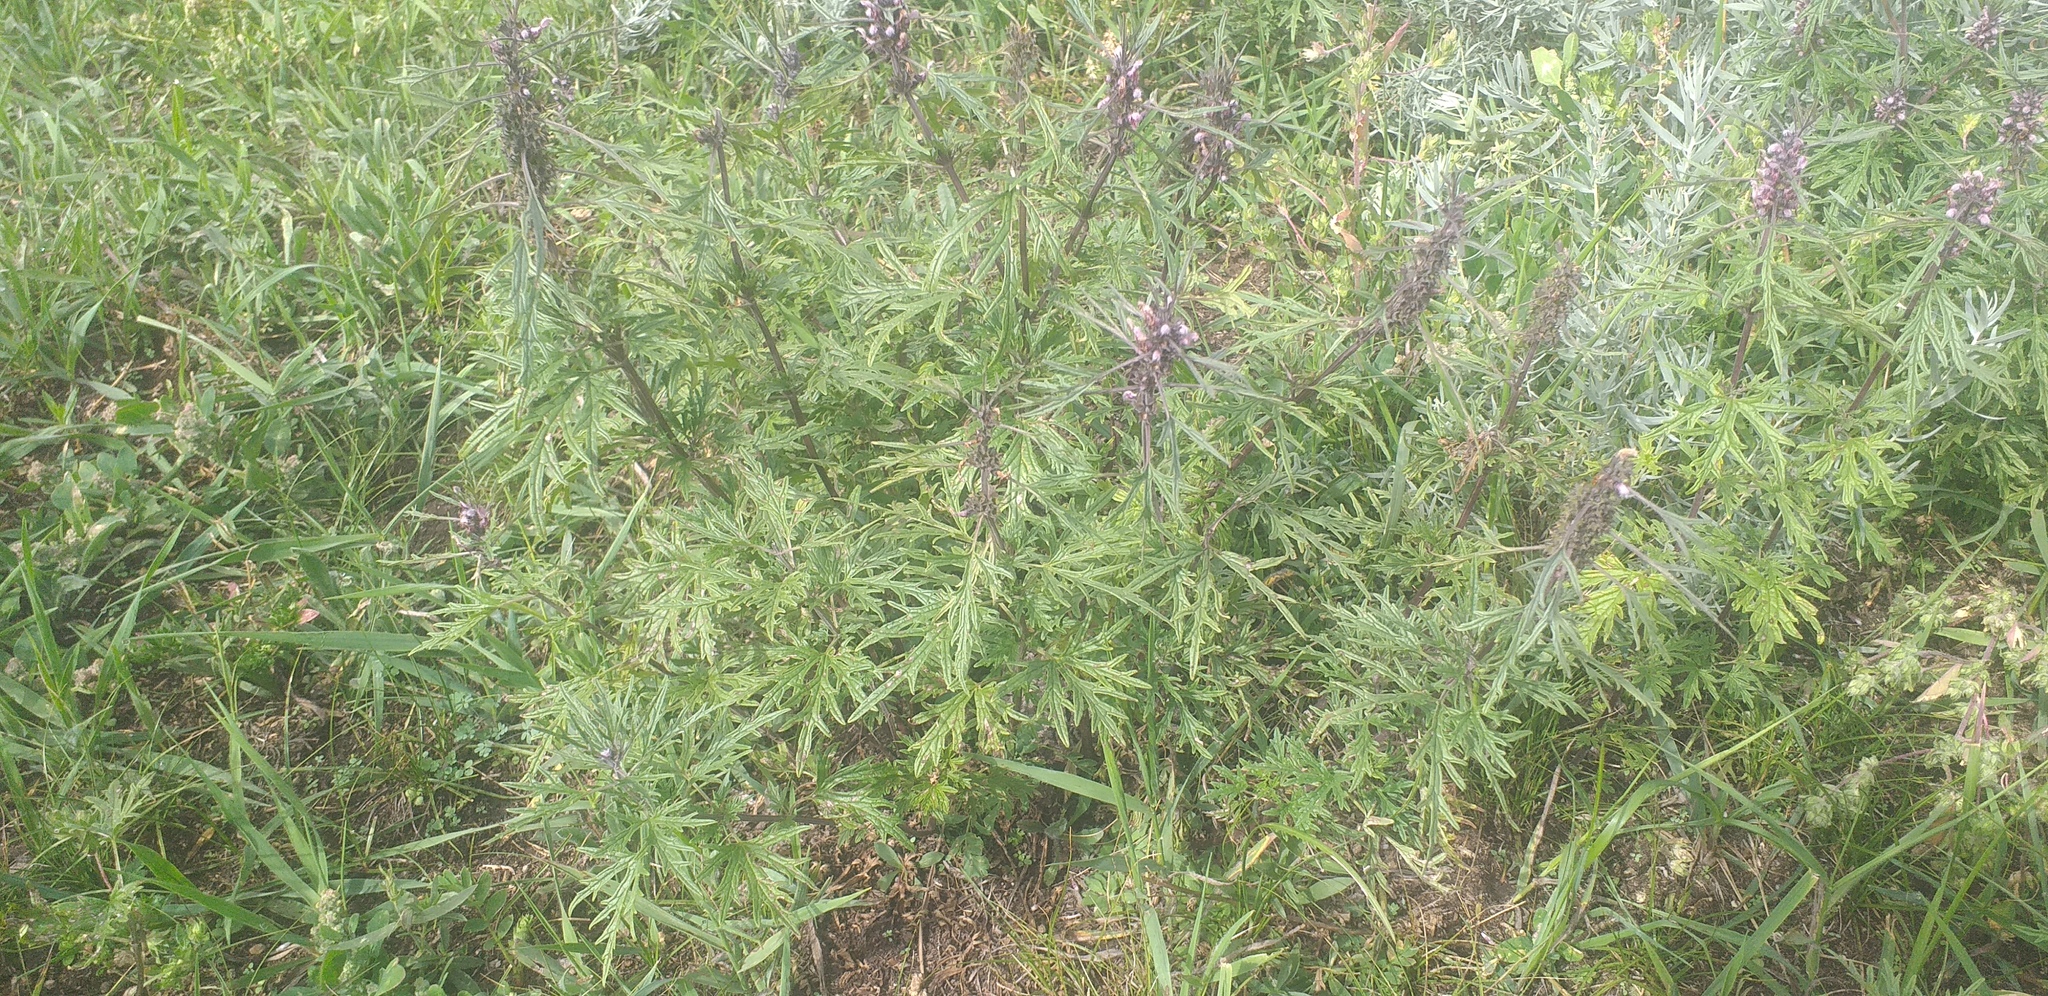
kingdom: Plantae
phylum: Tracheophyta
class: Magnoliopsida
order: Lamiales
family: Lamiaceae
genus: Leonurus
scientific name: Leonurus sibiricus
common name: Honeyweed
